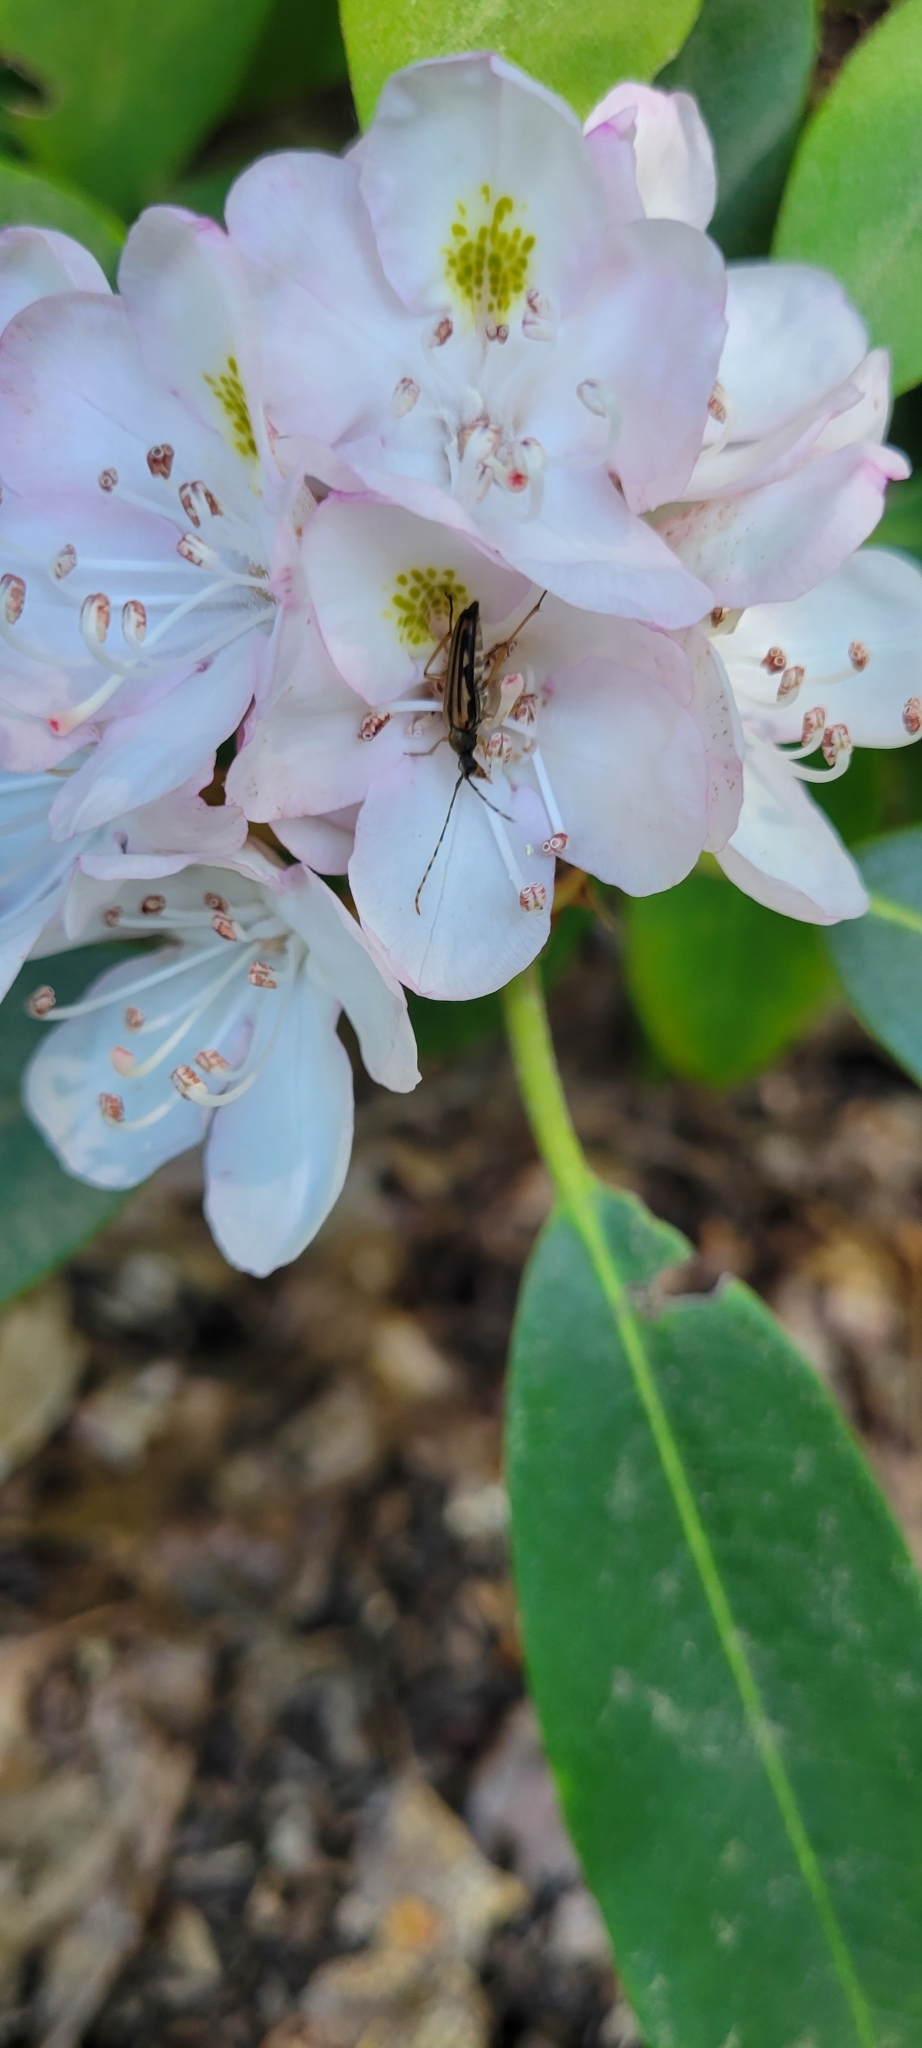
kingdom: Animalia
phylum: Arthropoda
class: Insecta
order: Coleoptera
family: Cerambycidae
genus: Analeptura
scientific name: Analeptura lineola
